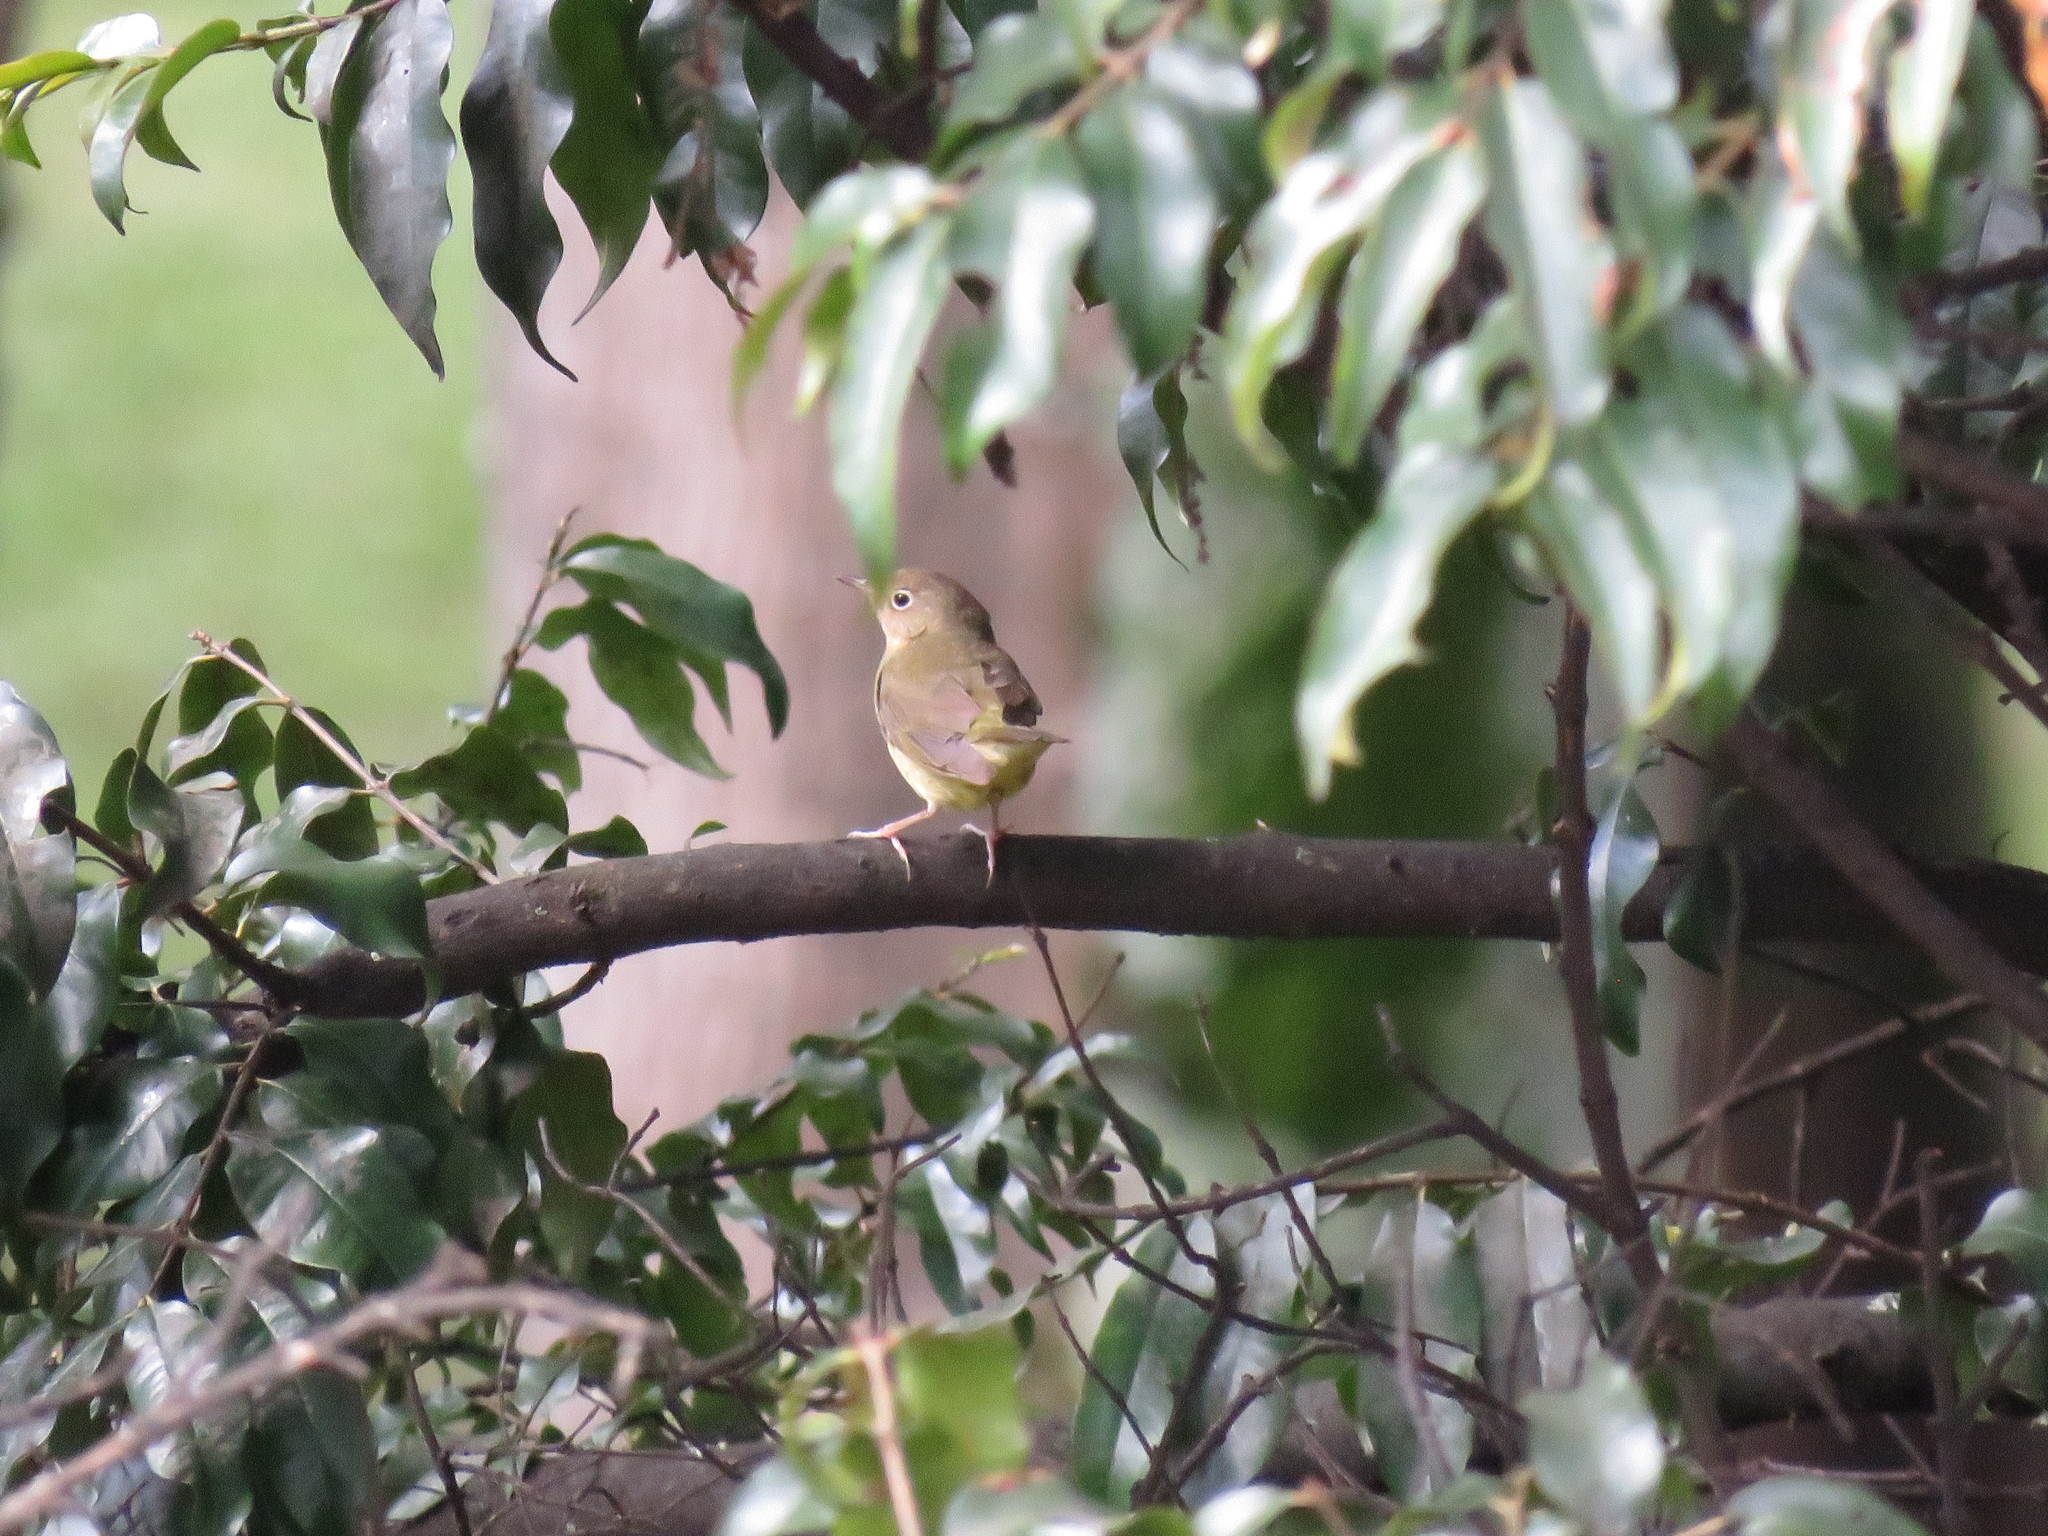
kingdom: Animalia
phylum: Chordata
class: Aves
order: Passeriformes
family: Parulidae
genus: Oporornis
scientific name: Oporornis agilis
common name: Connecticut warbler
